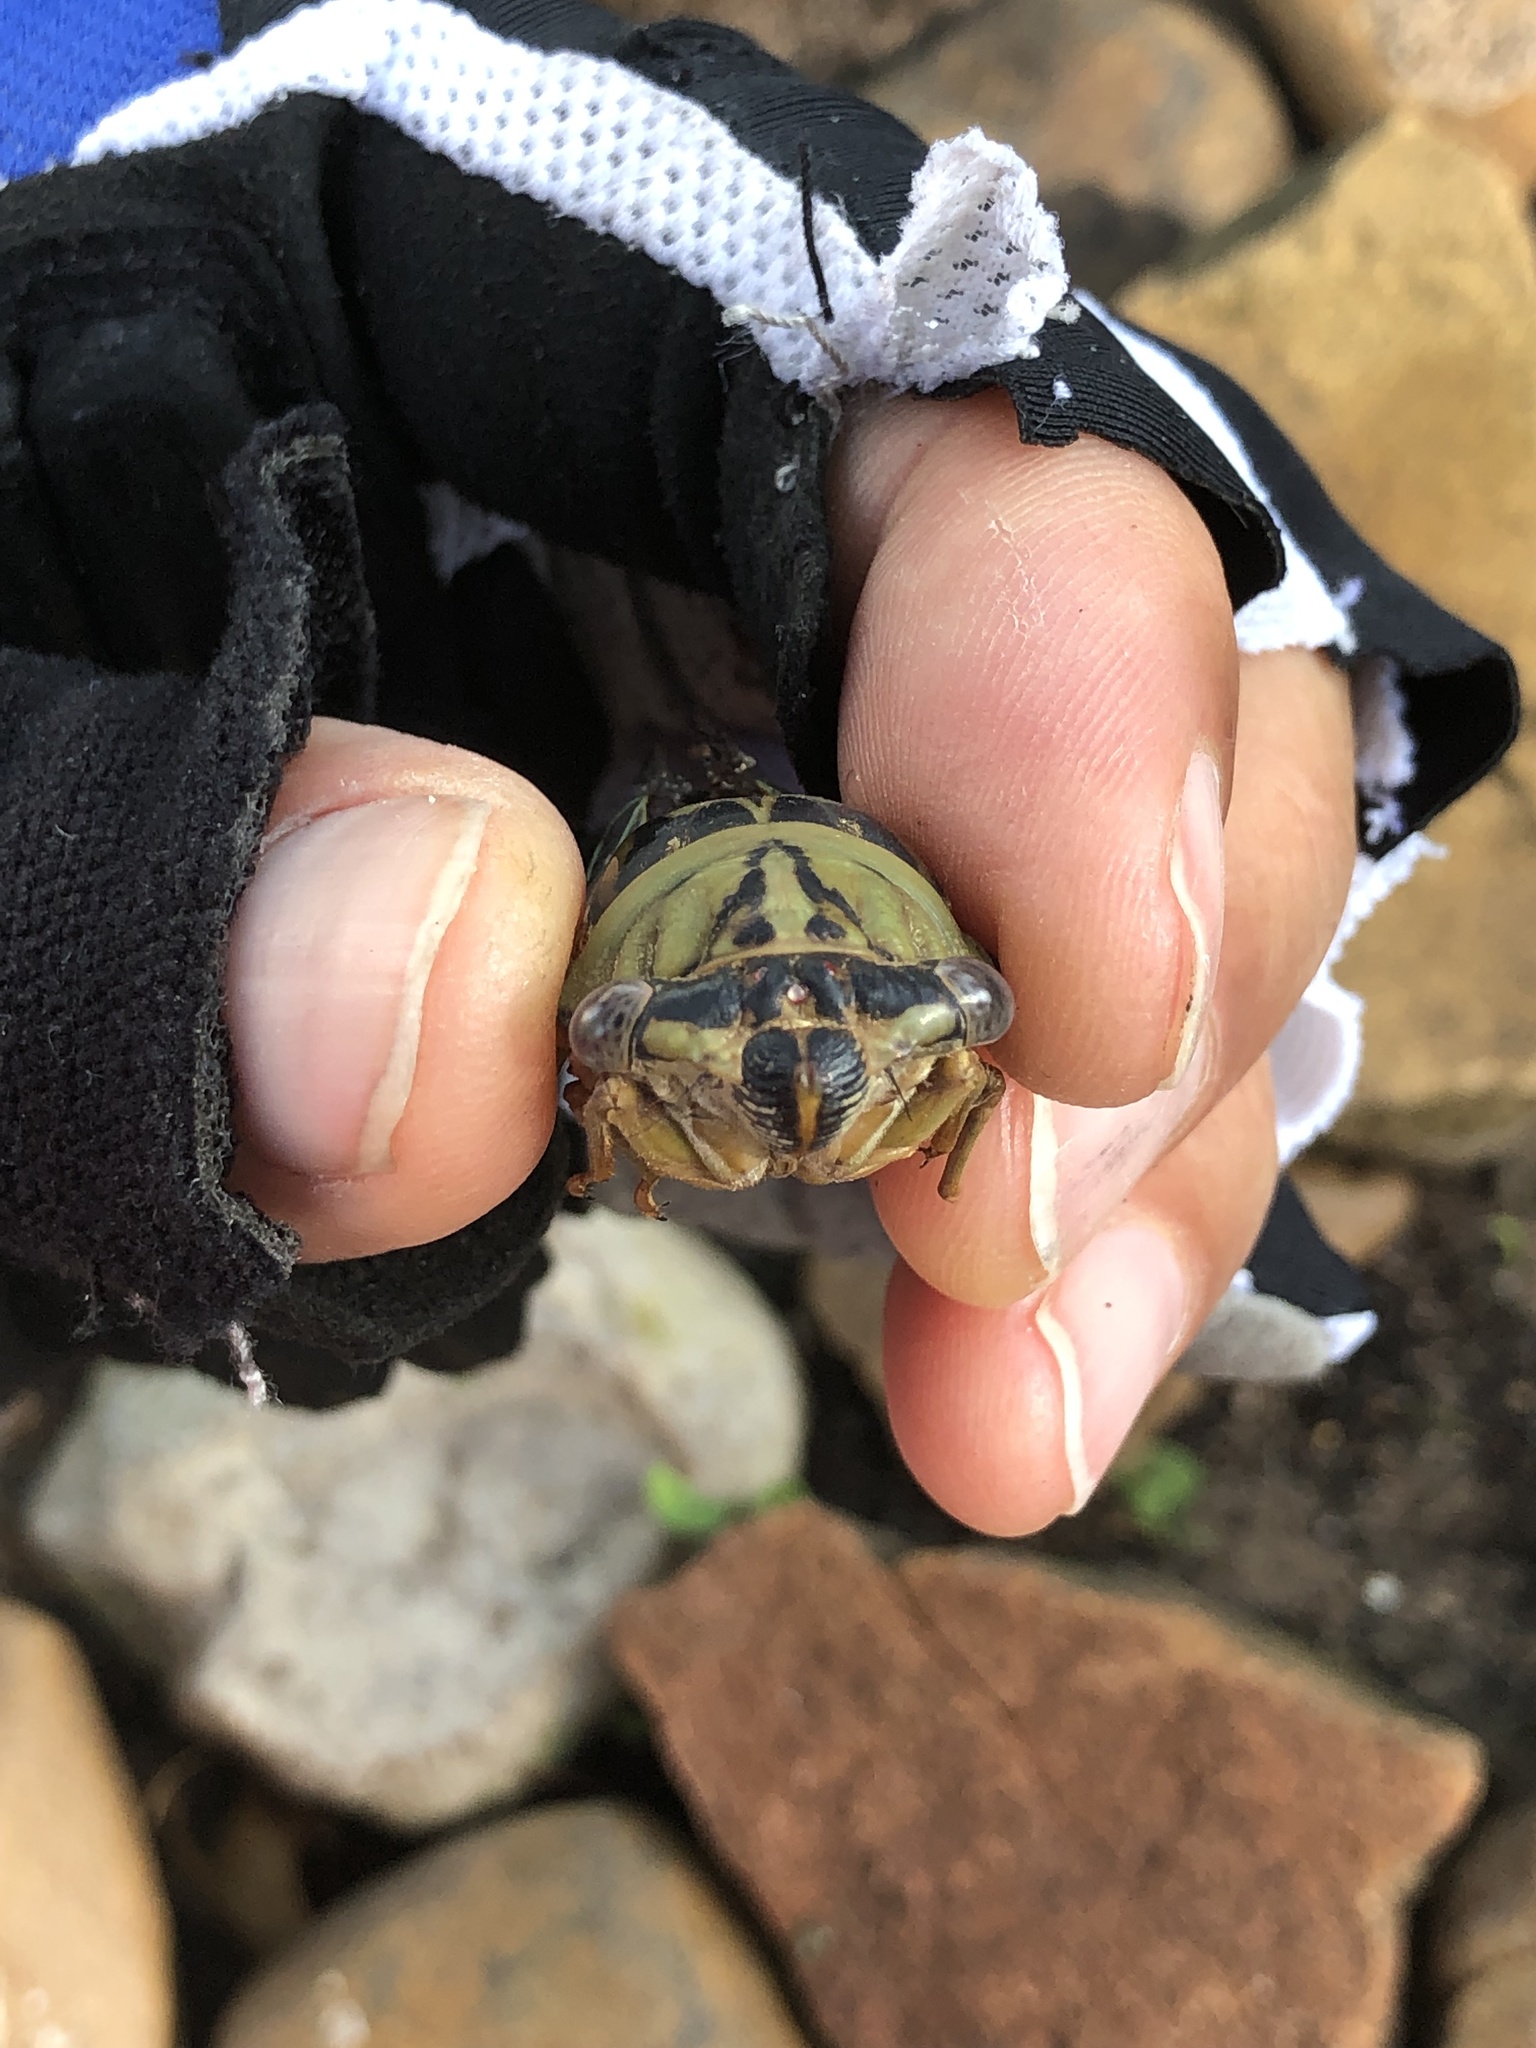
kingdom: Animalia
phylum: Arthropoda
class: Insecta
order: Hemiptera
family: Cicadidae
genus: Megatibicen
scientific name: Megatibicen resh
